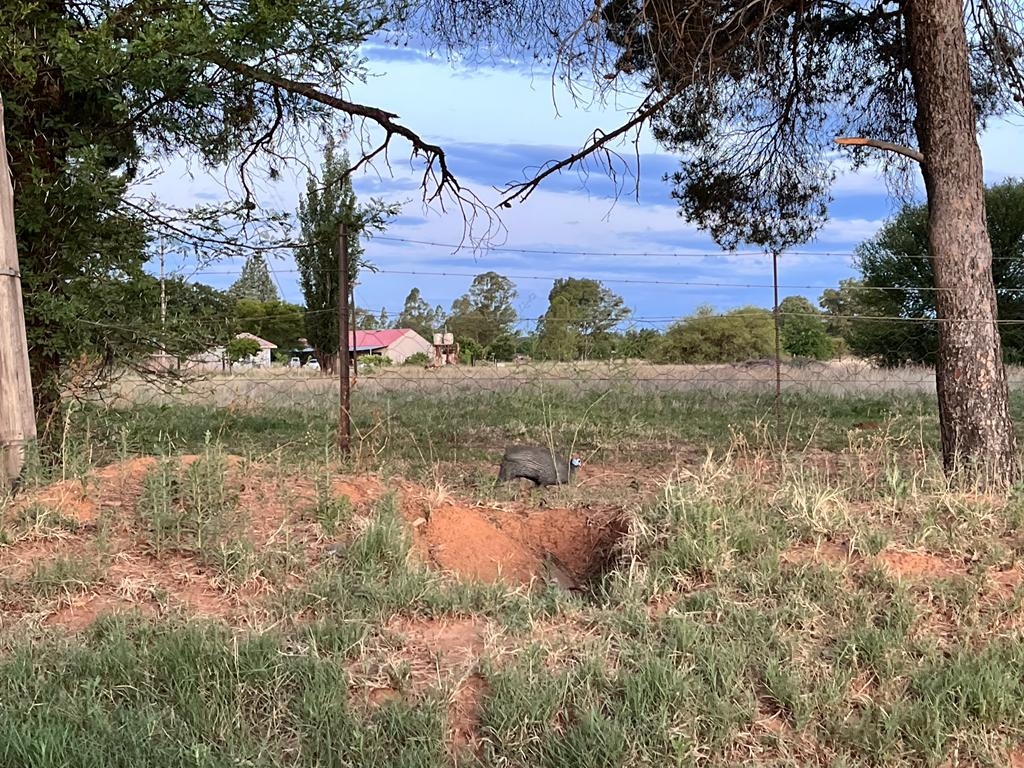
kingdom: Animalia
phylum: Chordata
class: Aves
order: Galliformes
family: Numididae
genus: Numida
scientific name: Numida meleagris
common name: Helmeted guineafowl
